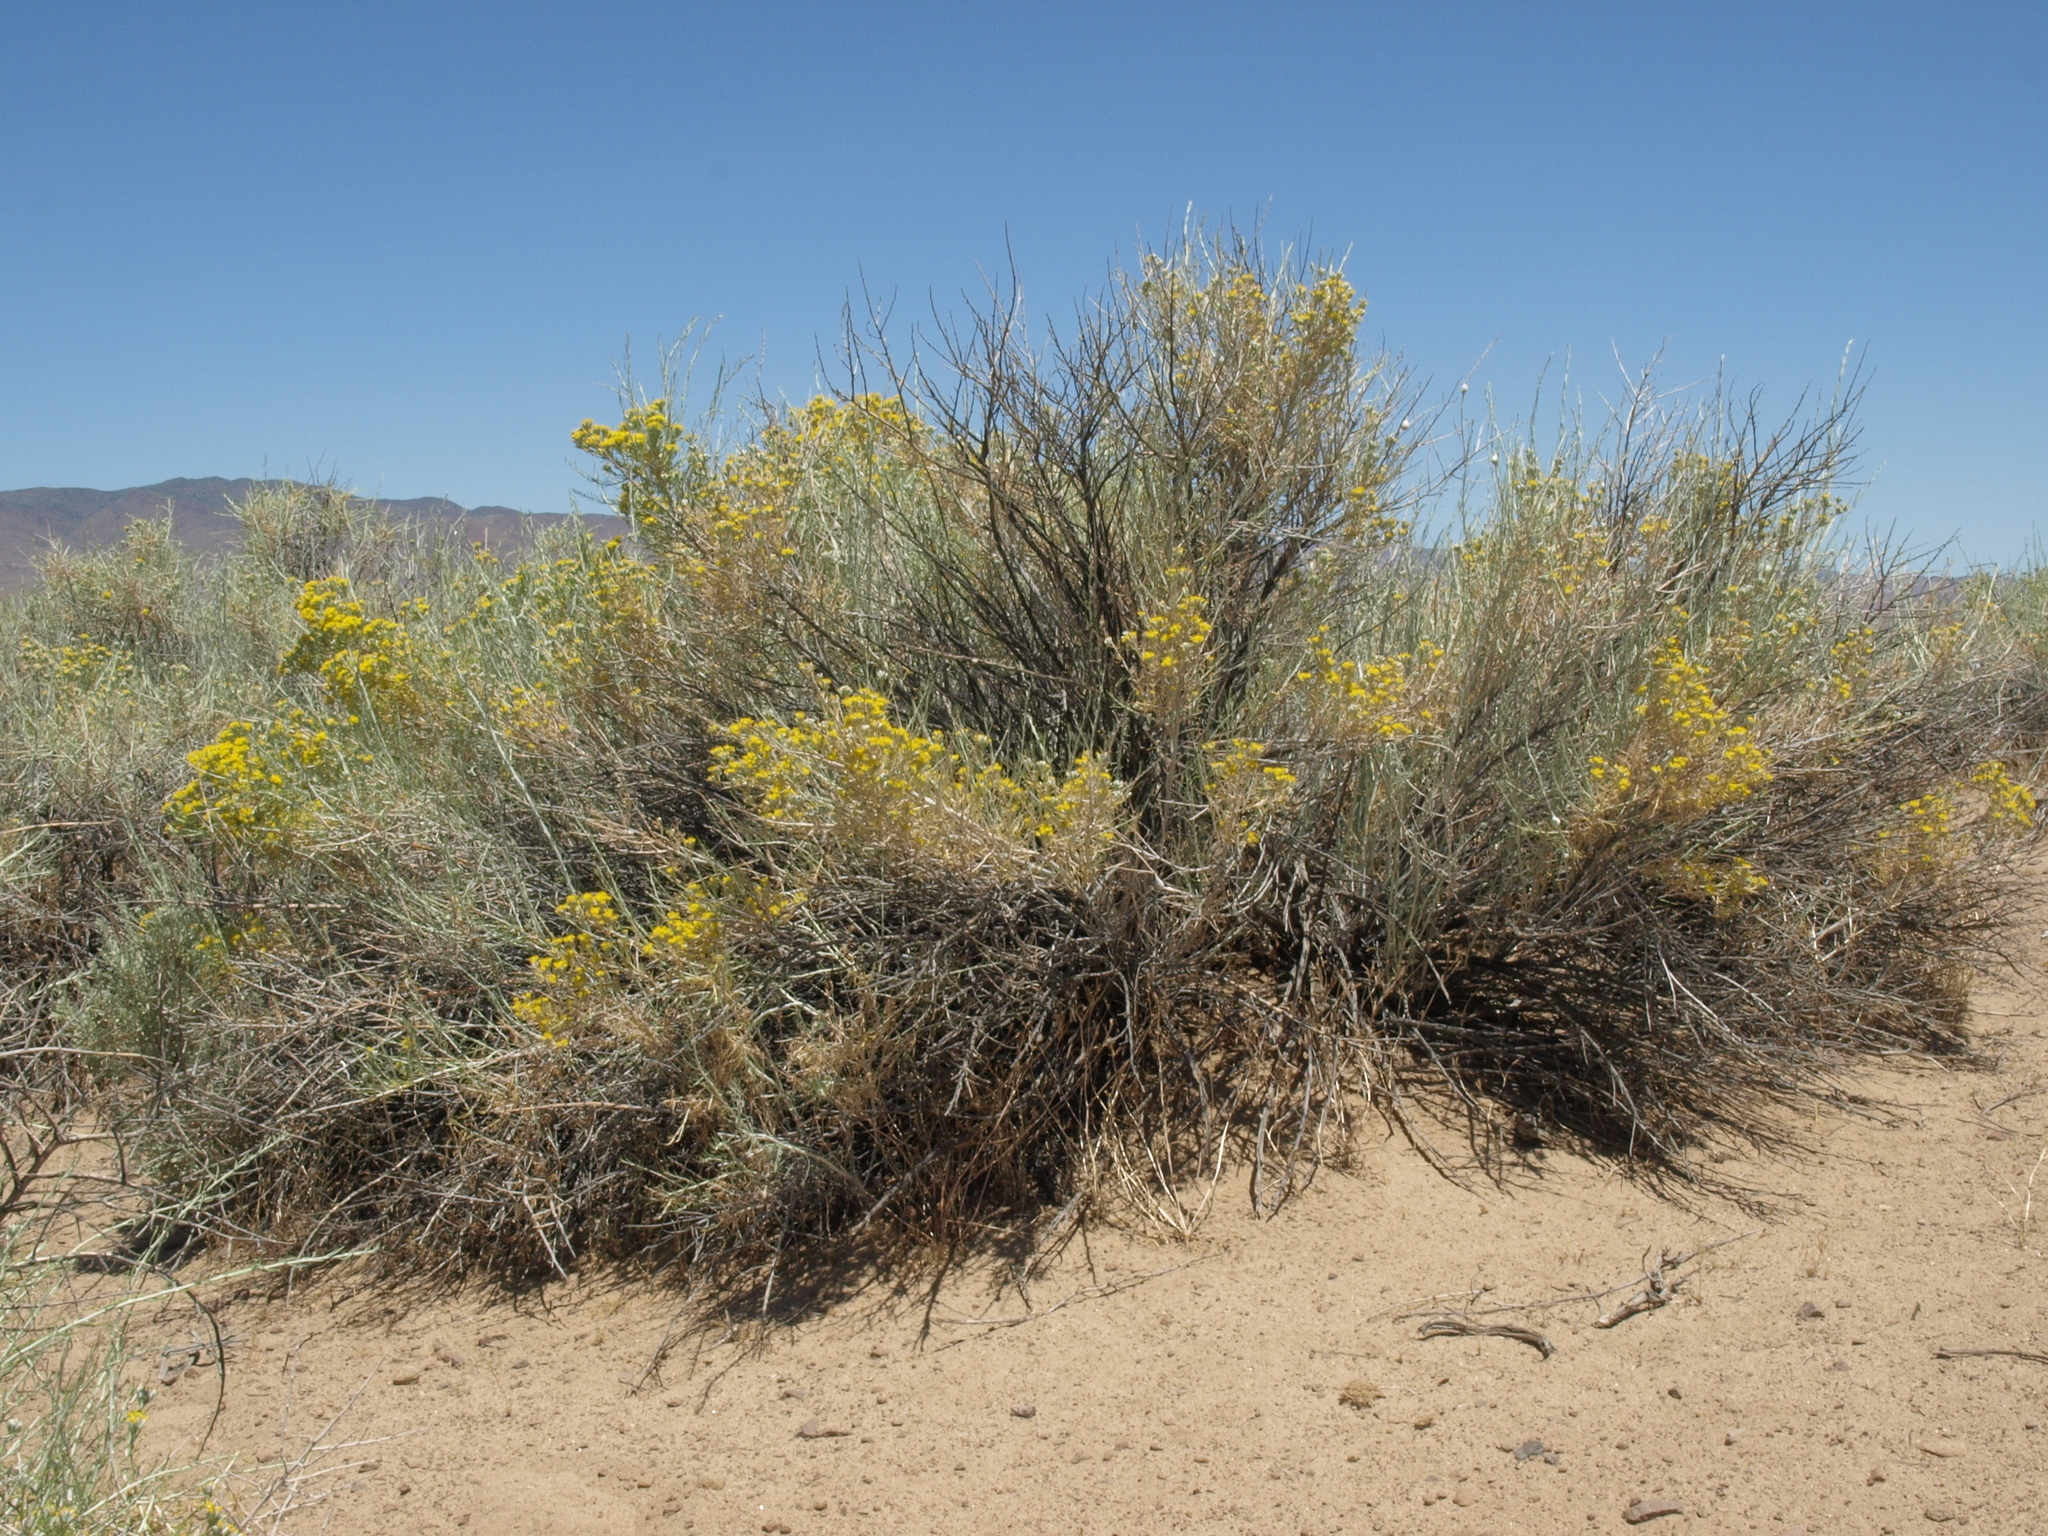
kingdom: Plantae
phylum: Tracheophyta
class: Magnoliopsida
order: Asterales
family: Asteraceae
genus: Tetradymia
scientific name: Tetradymia tetrameres
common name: Dune horsebrush
